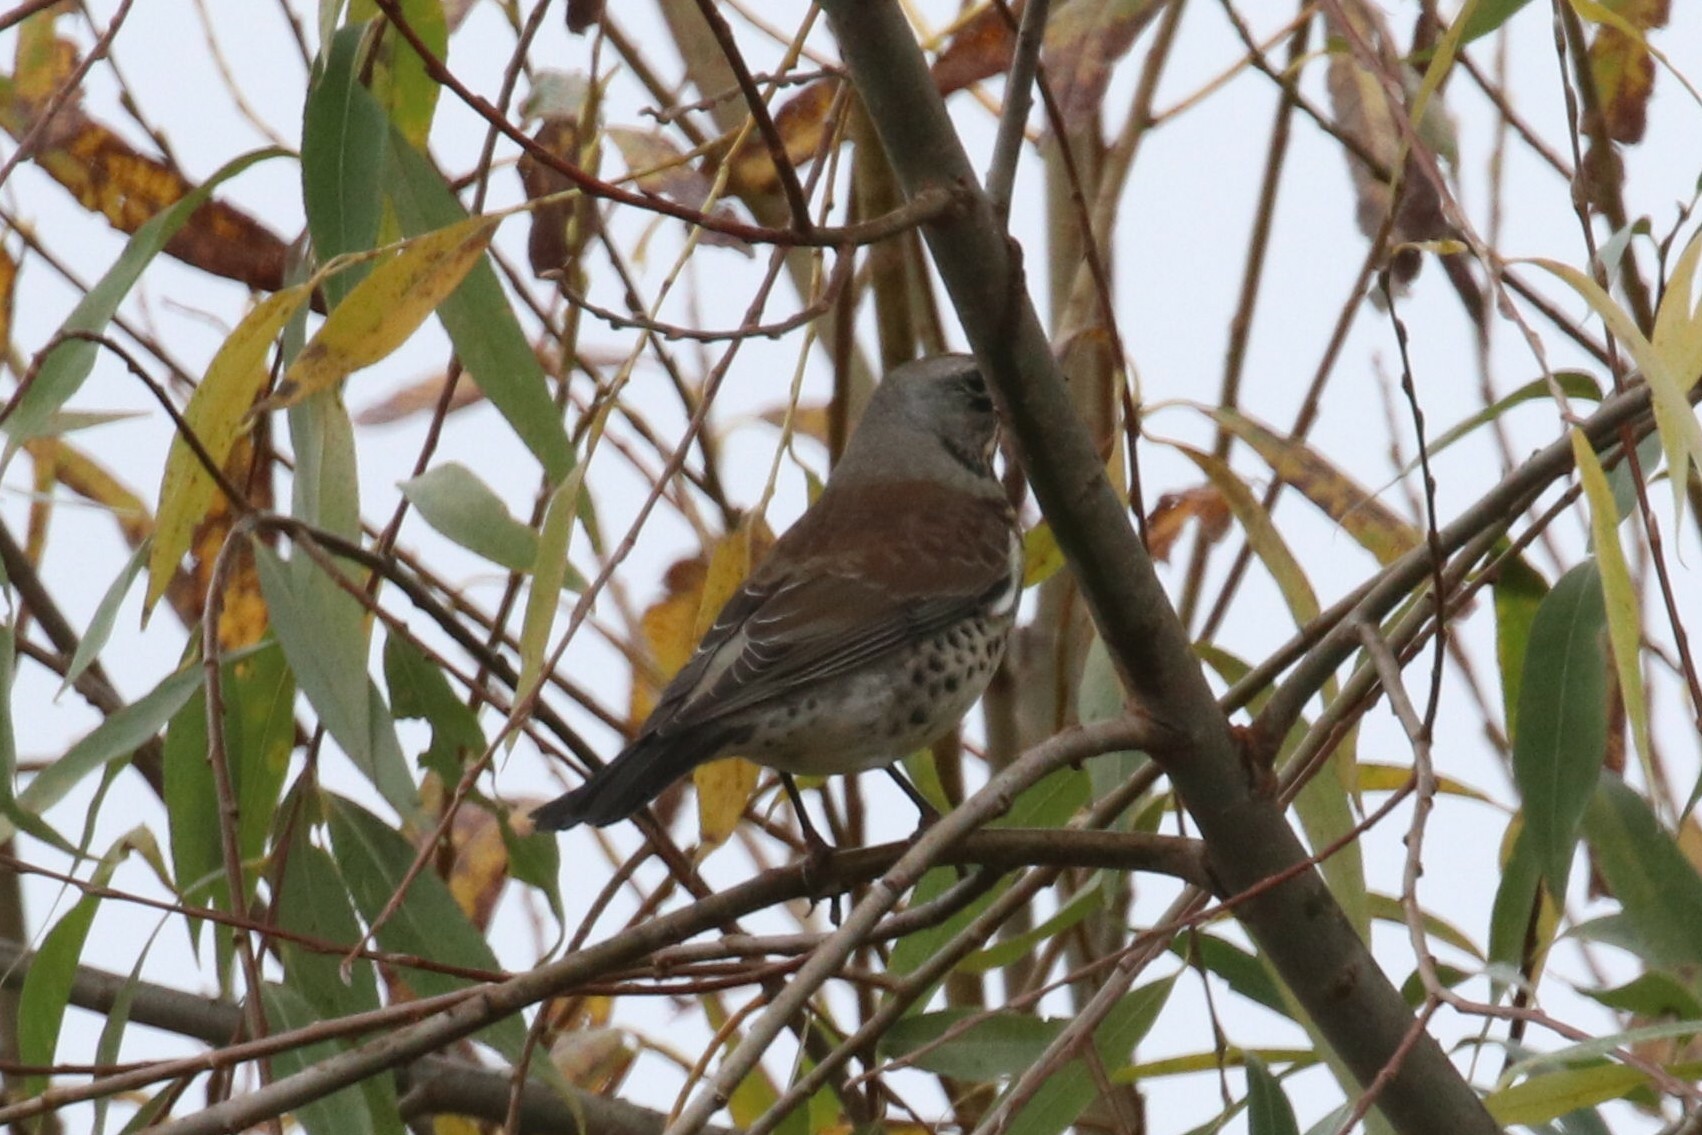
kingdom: Animalia
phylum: Chordata
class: Aves
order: Passeriformes
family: Turdidae
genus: Turdus
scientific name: Turdus pilaris
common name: Fieldfare
